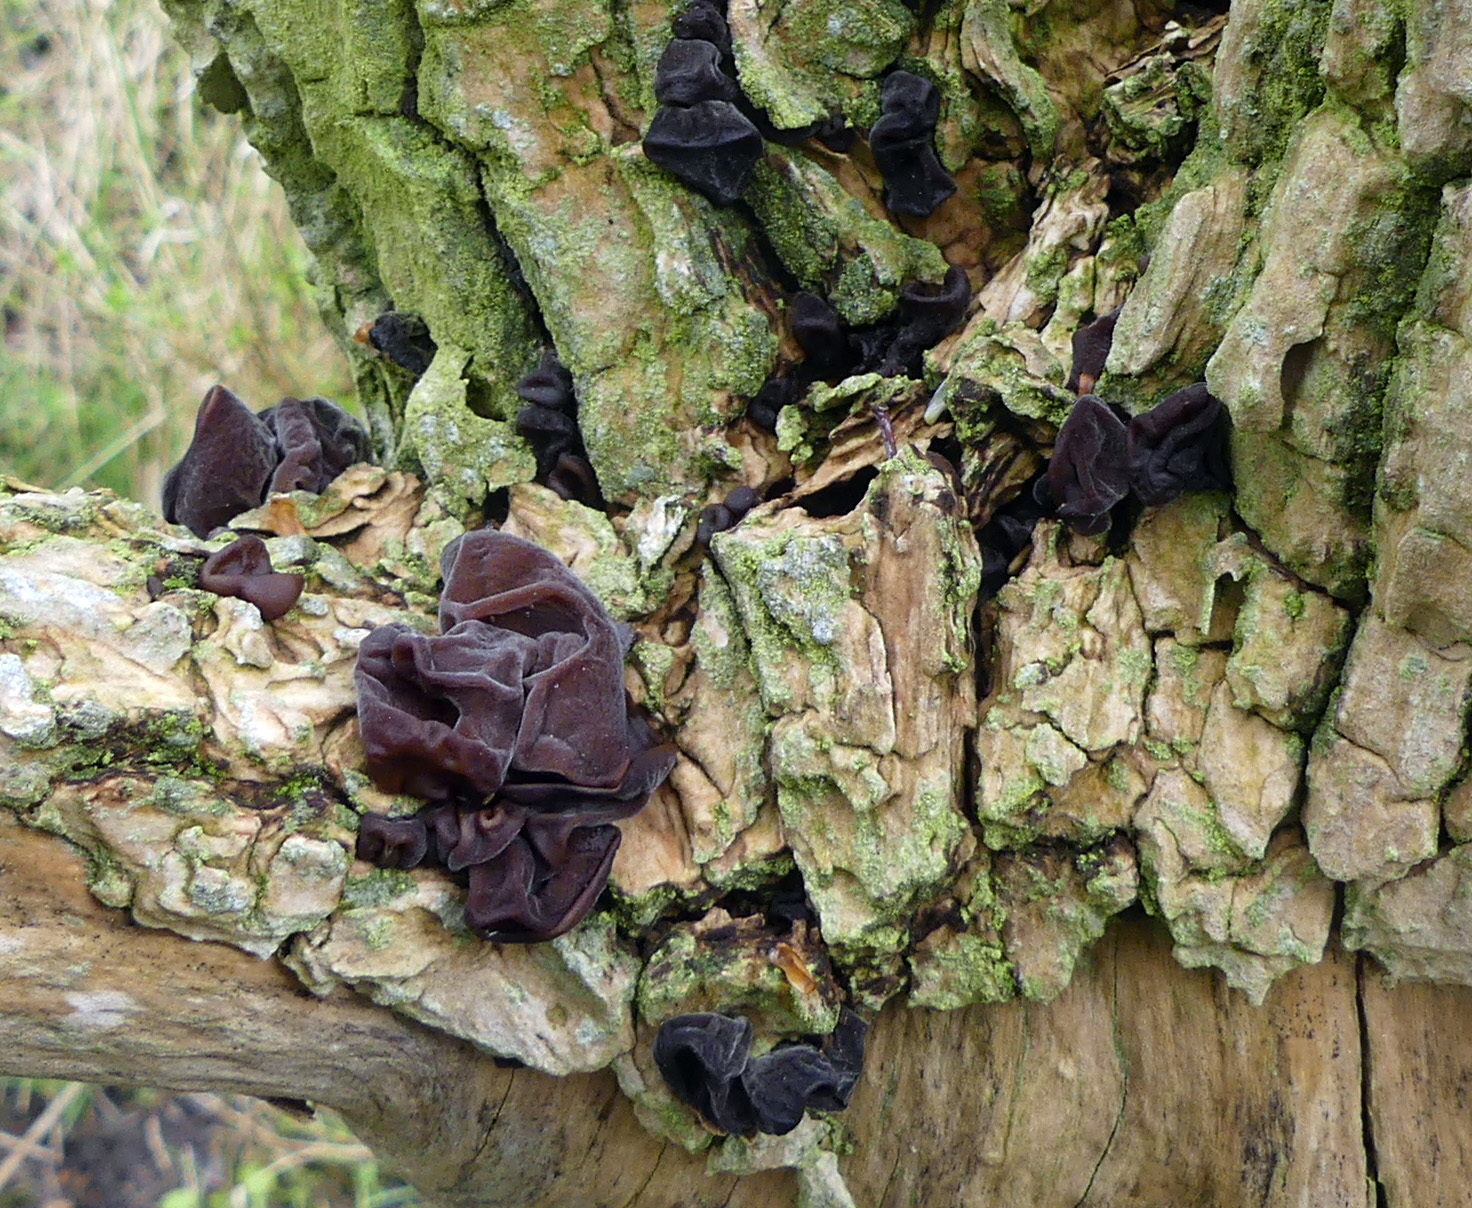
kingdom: Fungi
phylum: Basidiomycota
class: Agaricomycetes
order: Auriculariales
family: Auriculariaceae
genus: Auricularia
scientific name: Auricularia auricula-judae
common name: Jelly ear
